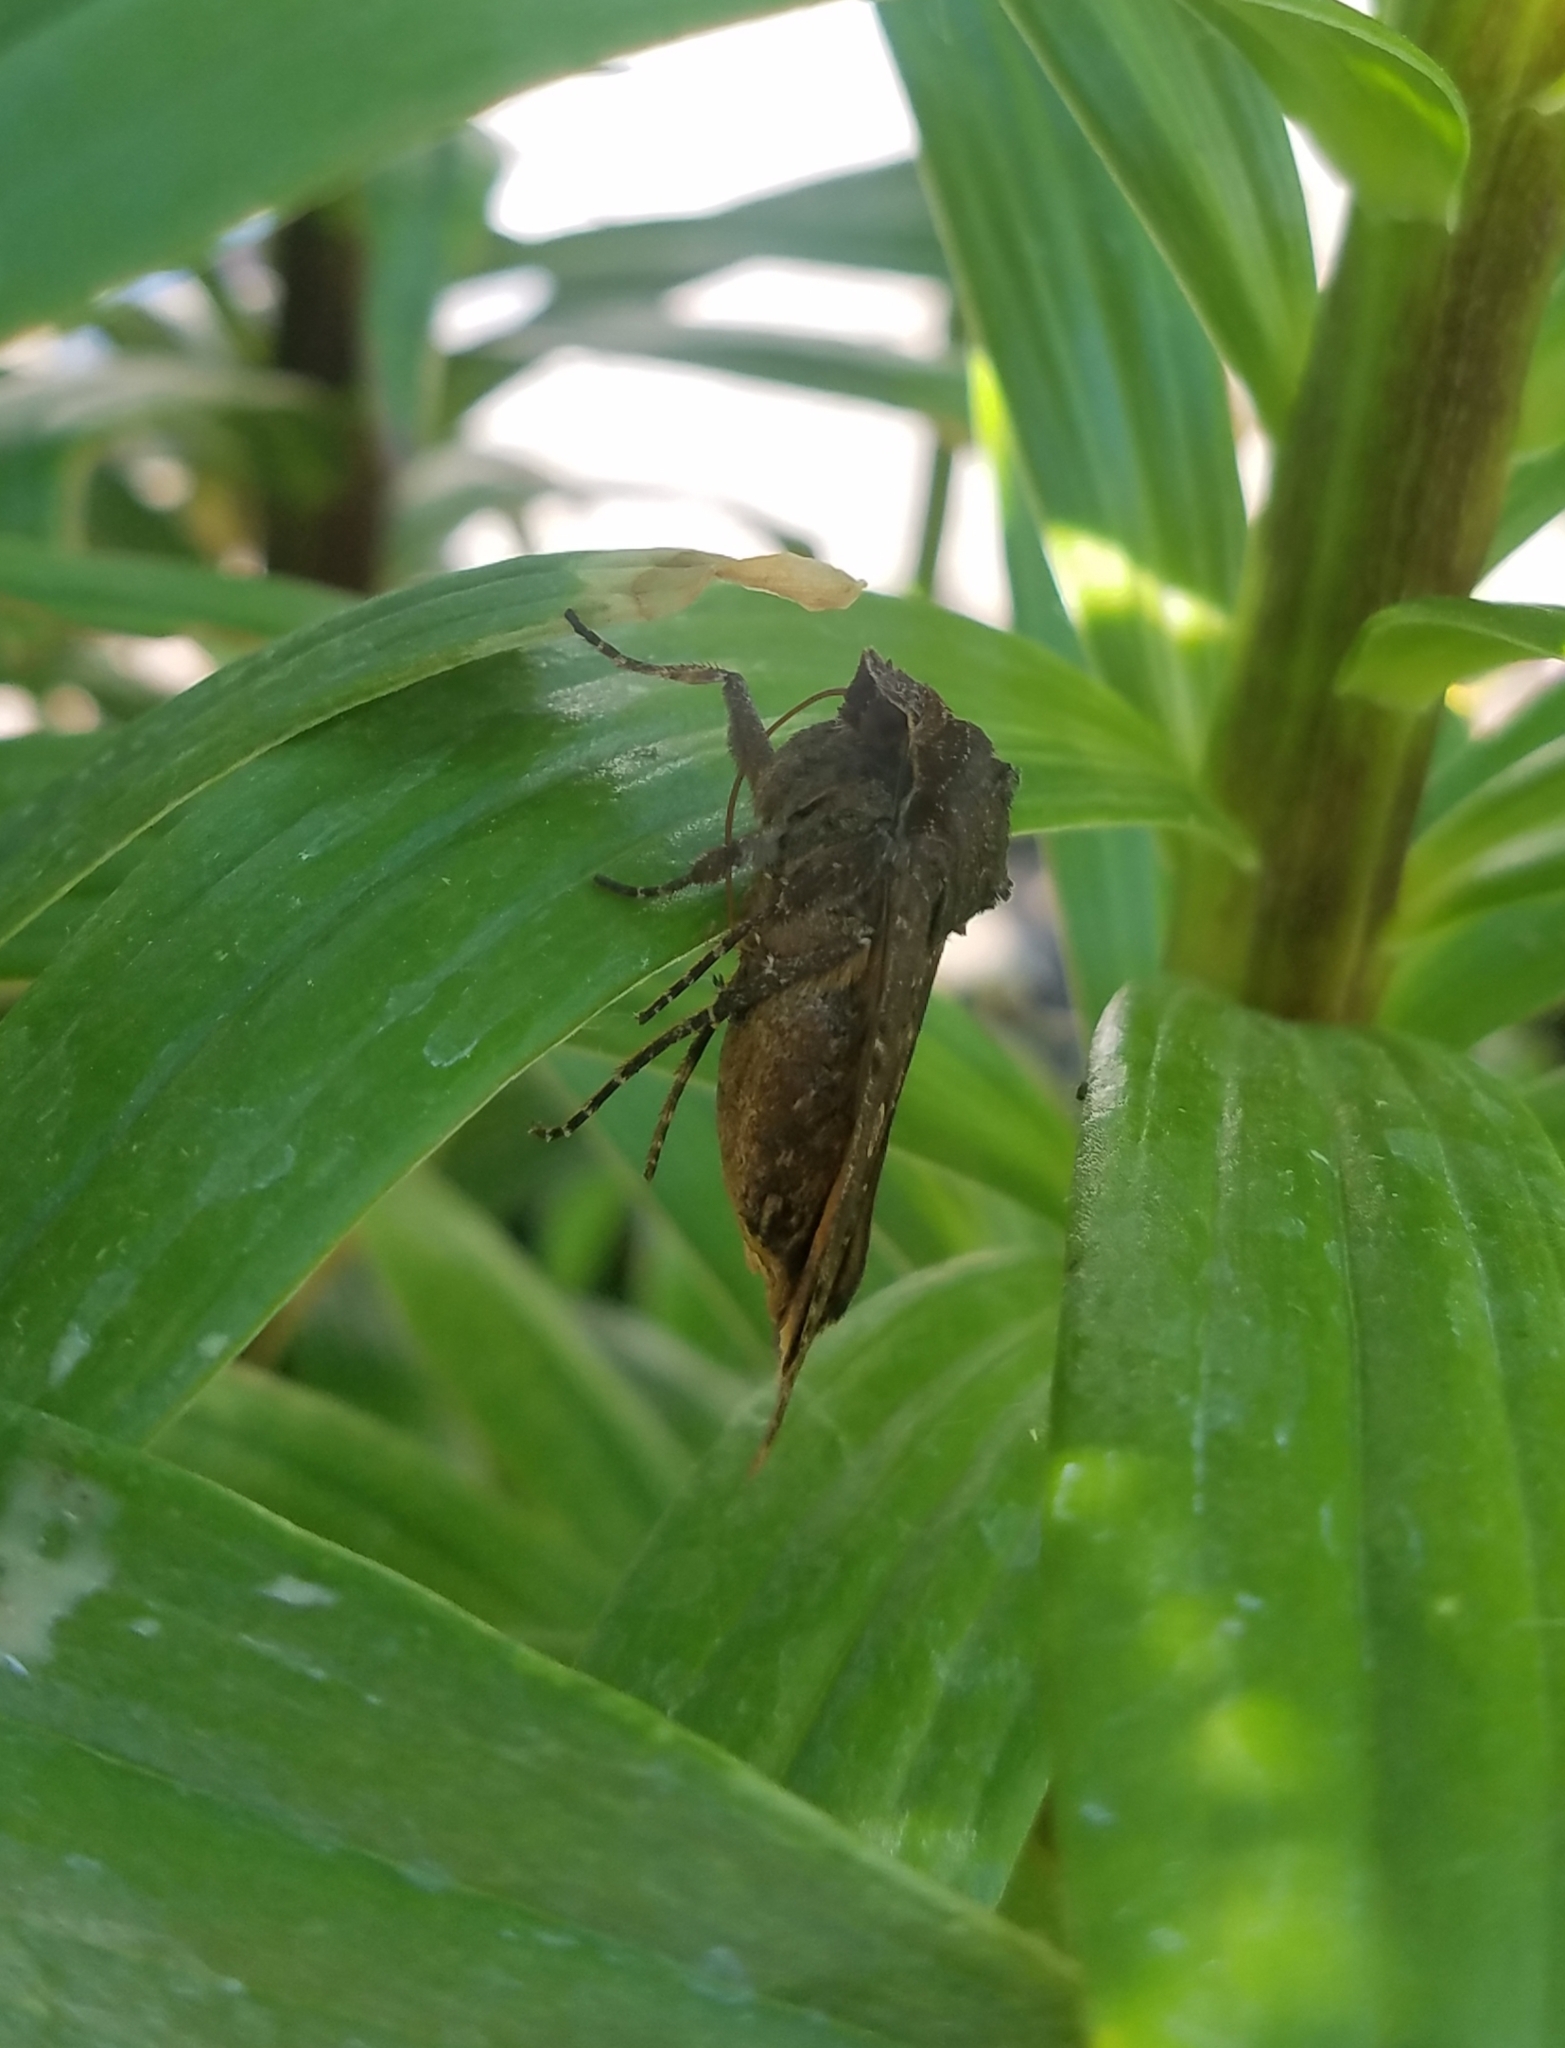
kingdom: Animalia
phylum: Arthropoda
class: Insecta
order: Lepidoptera
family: Noctuidae
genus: Noctua
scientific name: Noctua pronuba
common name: Large yellow underwing
